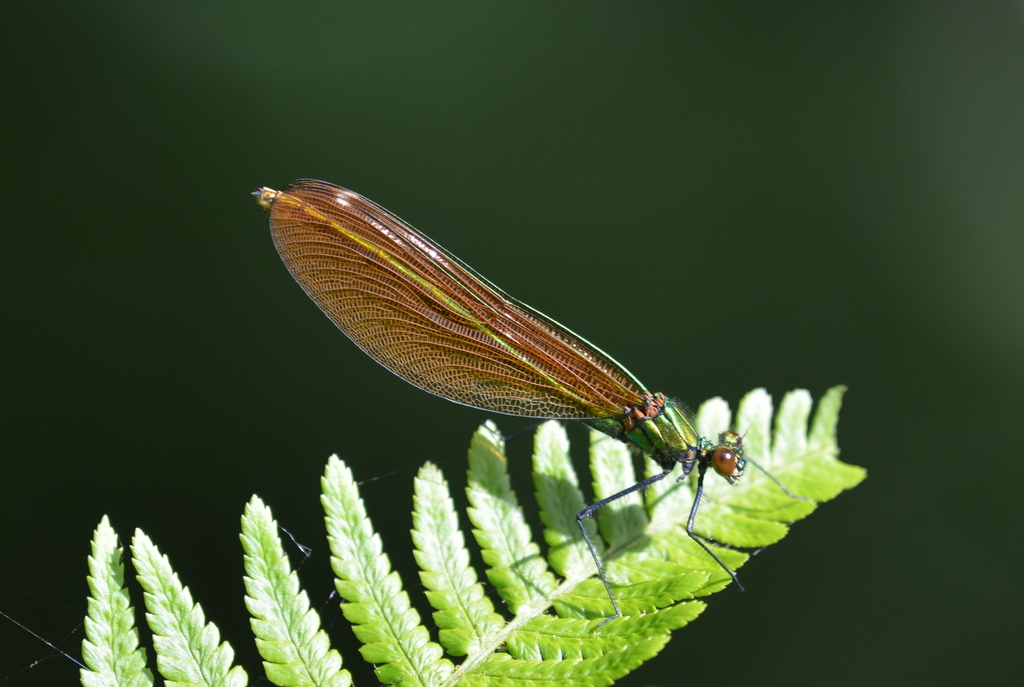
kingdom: Animalia
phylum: Arthropoda
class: Insecta
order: Odonata
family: Calopterygidae
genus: Calopteryx
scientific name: Calopteryx virgo
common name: Beautiful demoiselle
